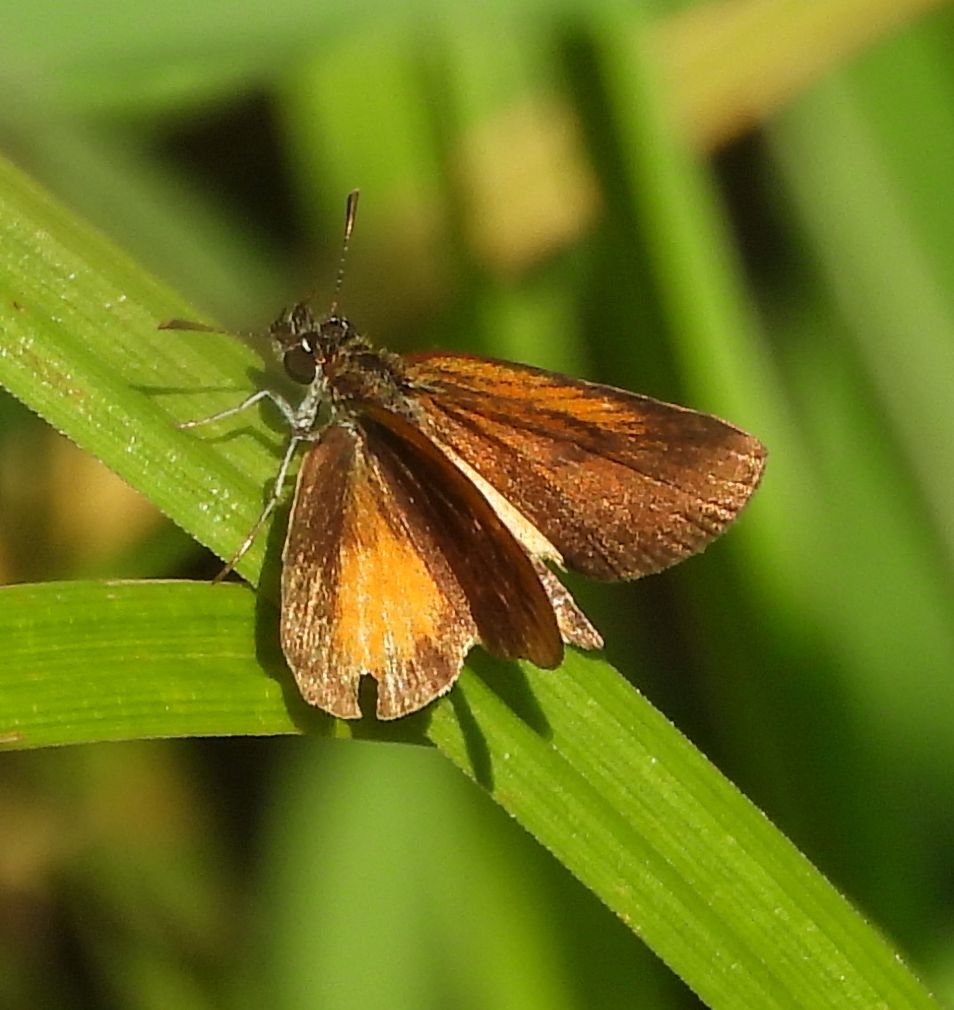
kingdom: Animalia
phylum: Arthropoda
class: Insecta
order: Lepidoptera
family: Hesperiidae
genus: Ancyloxypha
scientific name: Ancyloxypha numitor
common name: Least skipper
